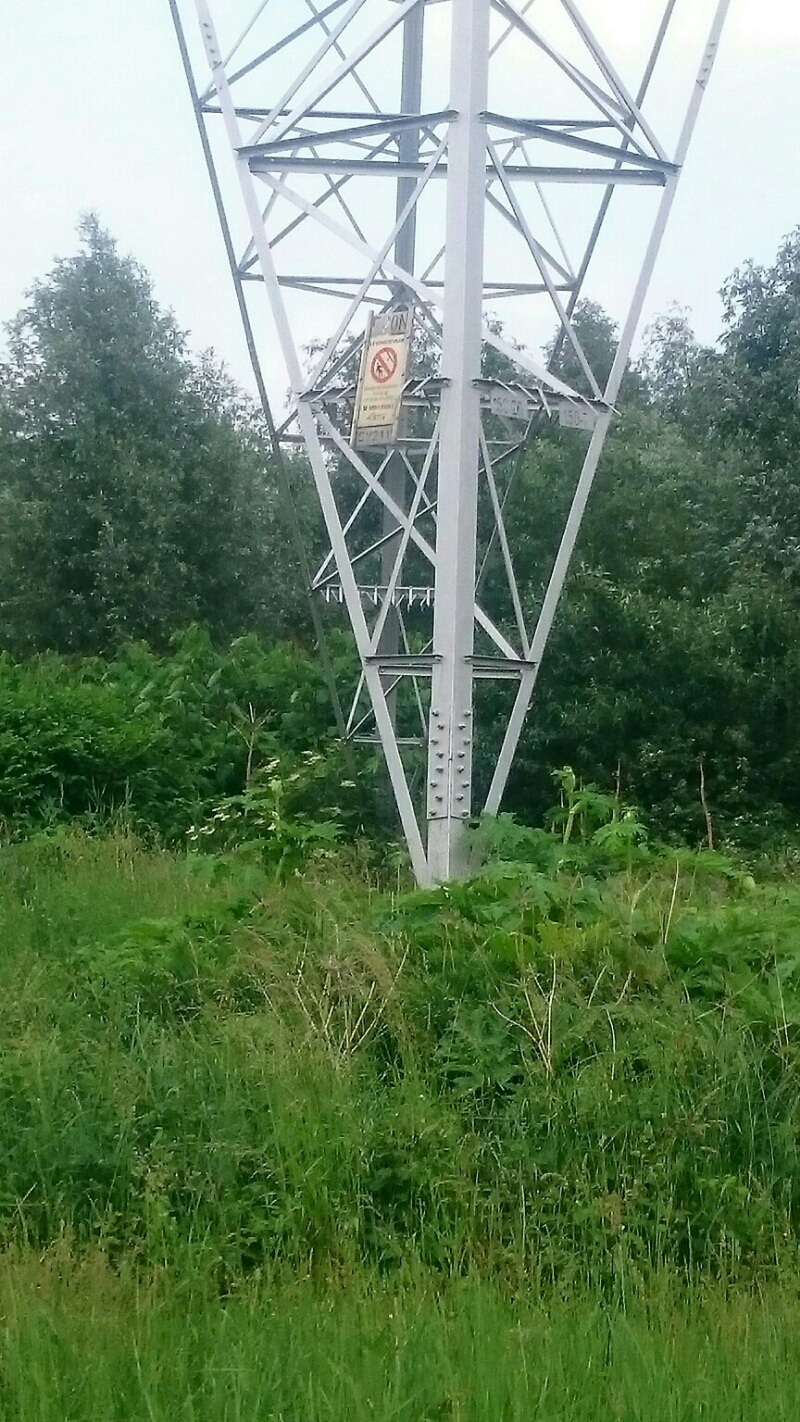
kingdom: Plantae
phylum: Tracheophyta
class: Magnoliopsida
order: Apiales
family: Apiaceae
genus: Heracleum
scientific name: Heracleum mantegazzianum
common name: Giant hogweed
